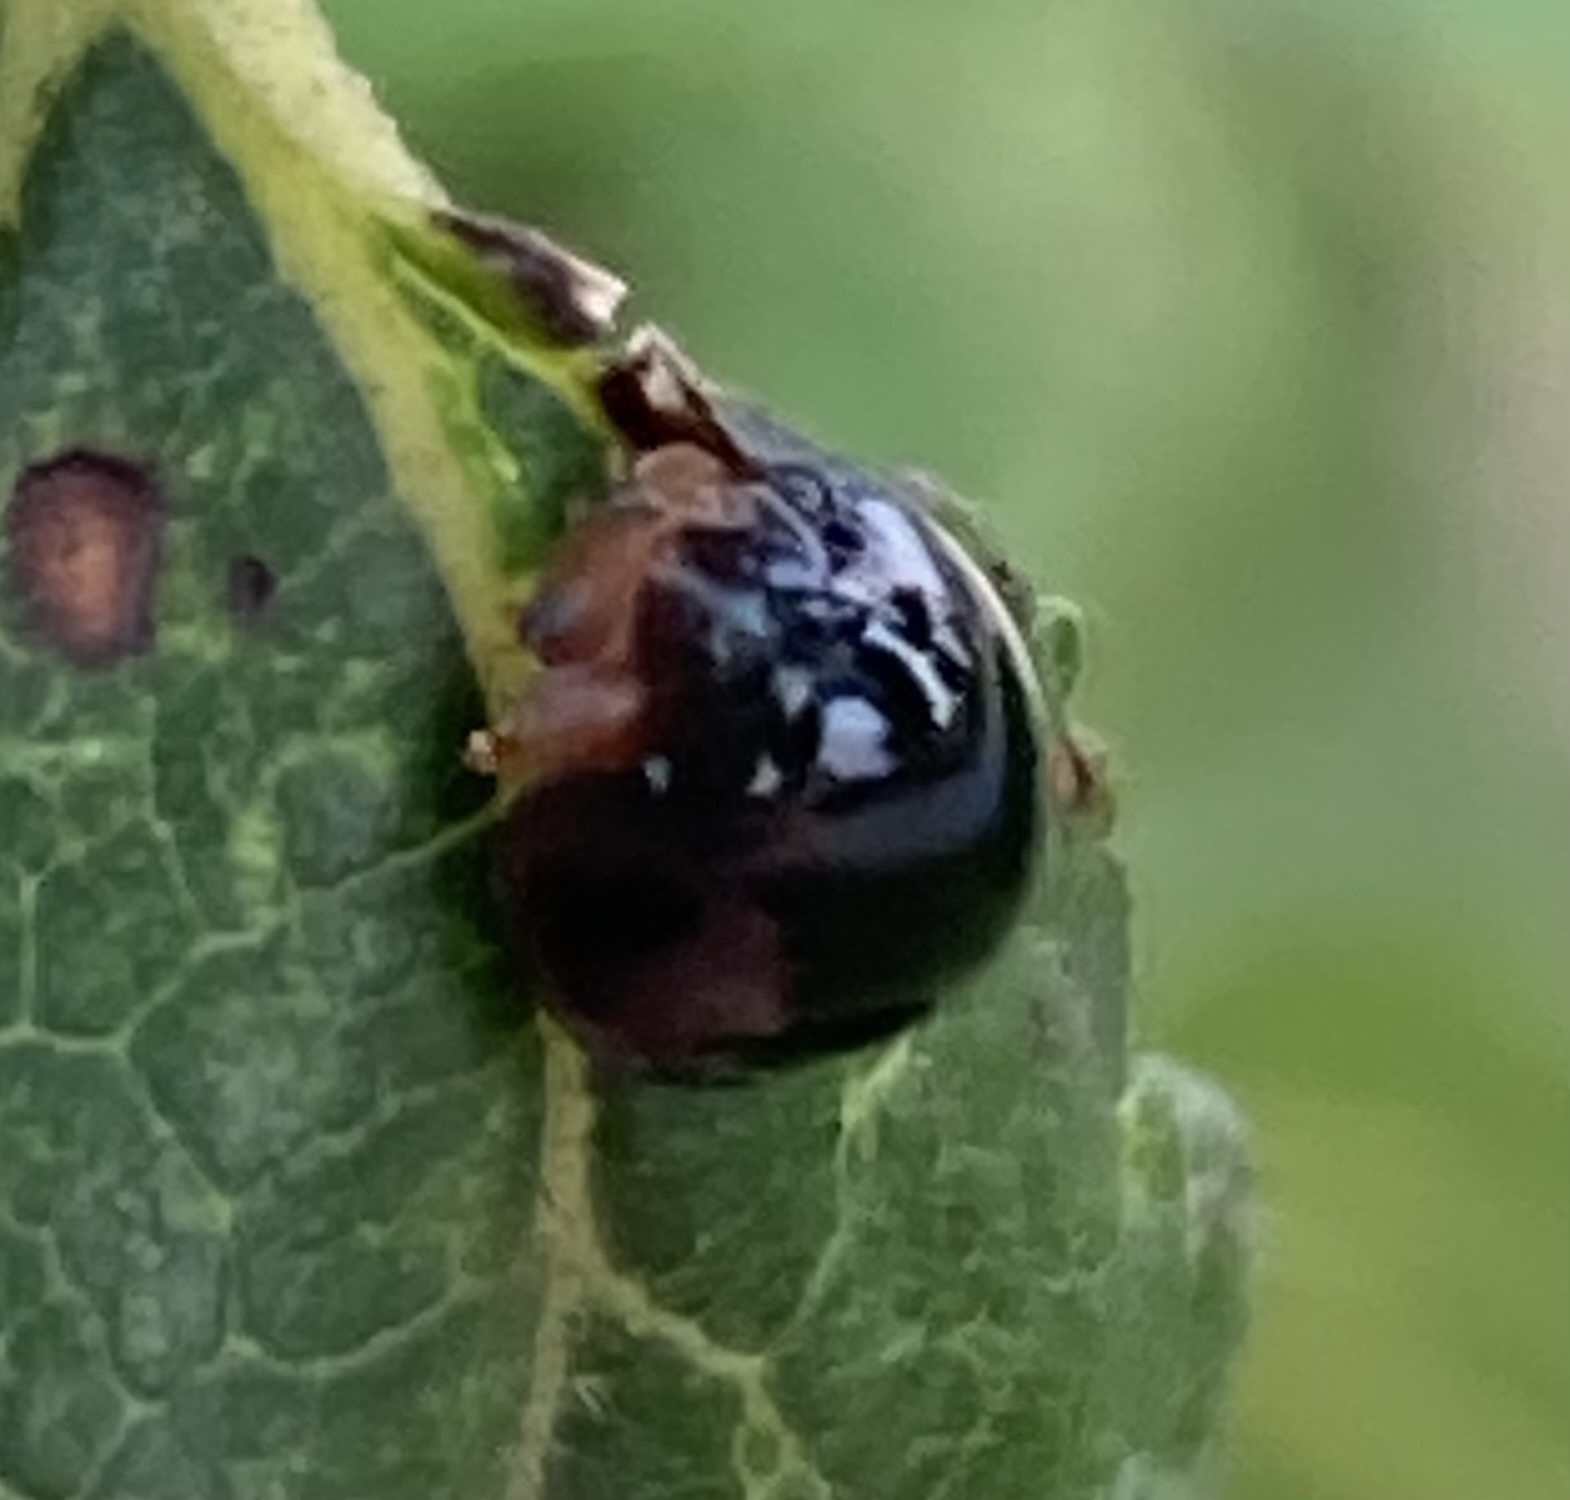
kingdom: Animalia
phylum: Arthropoda
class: Insecta
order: Coleoptera
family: Coccinellidae
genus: Chilocorus
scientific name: Chilocorus nigritus
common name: Ladybird beetle
